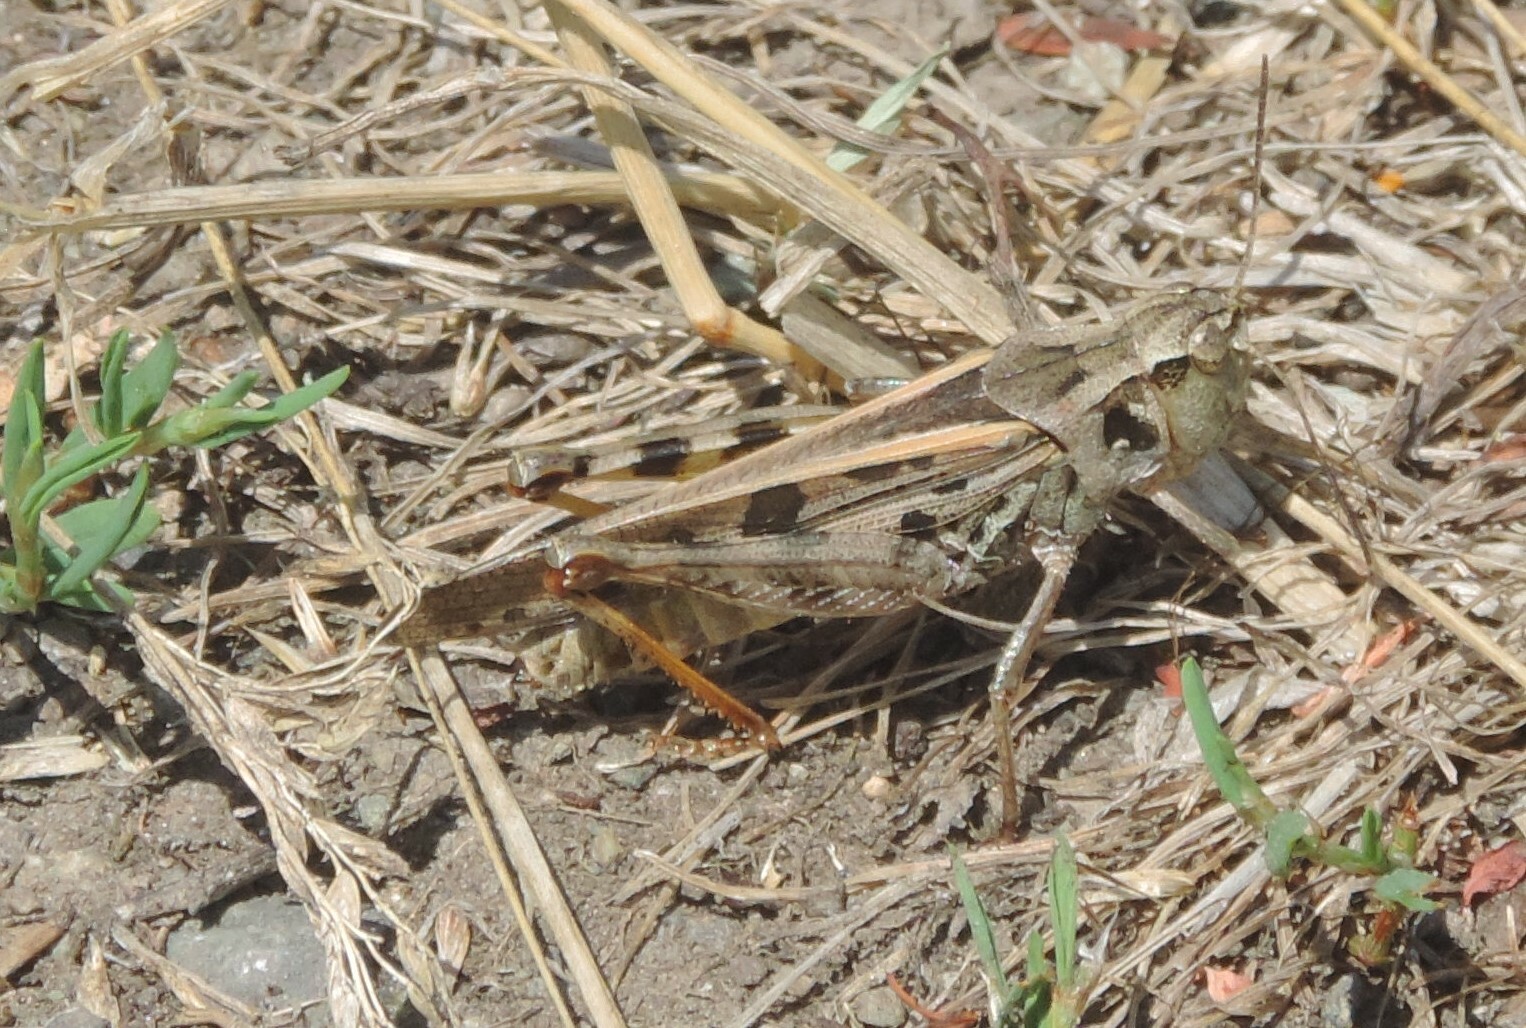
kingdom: Animalia
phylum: Arthropoda
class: Insecta
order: Orthoptera
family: Acrididae
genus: Camnula
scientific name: Camnula pellucida
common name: Clear-winged grasshopper
